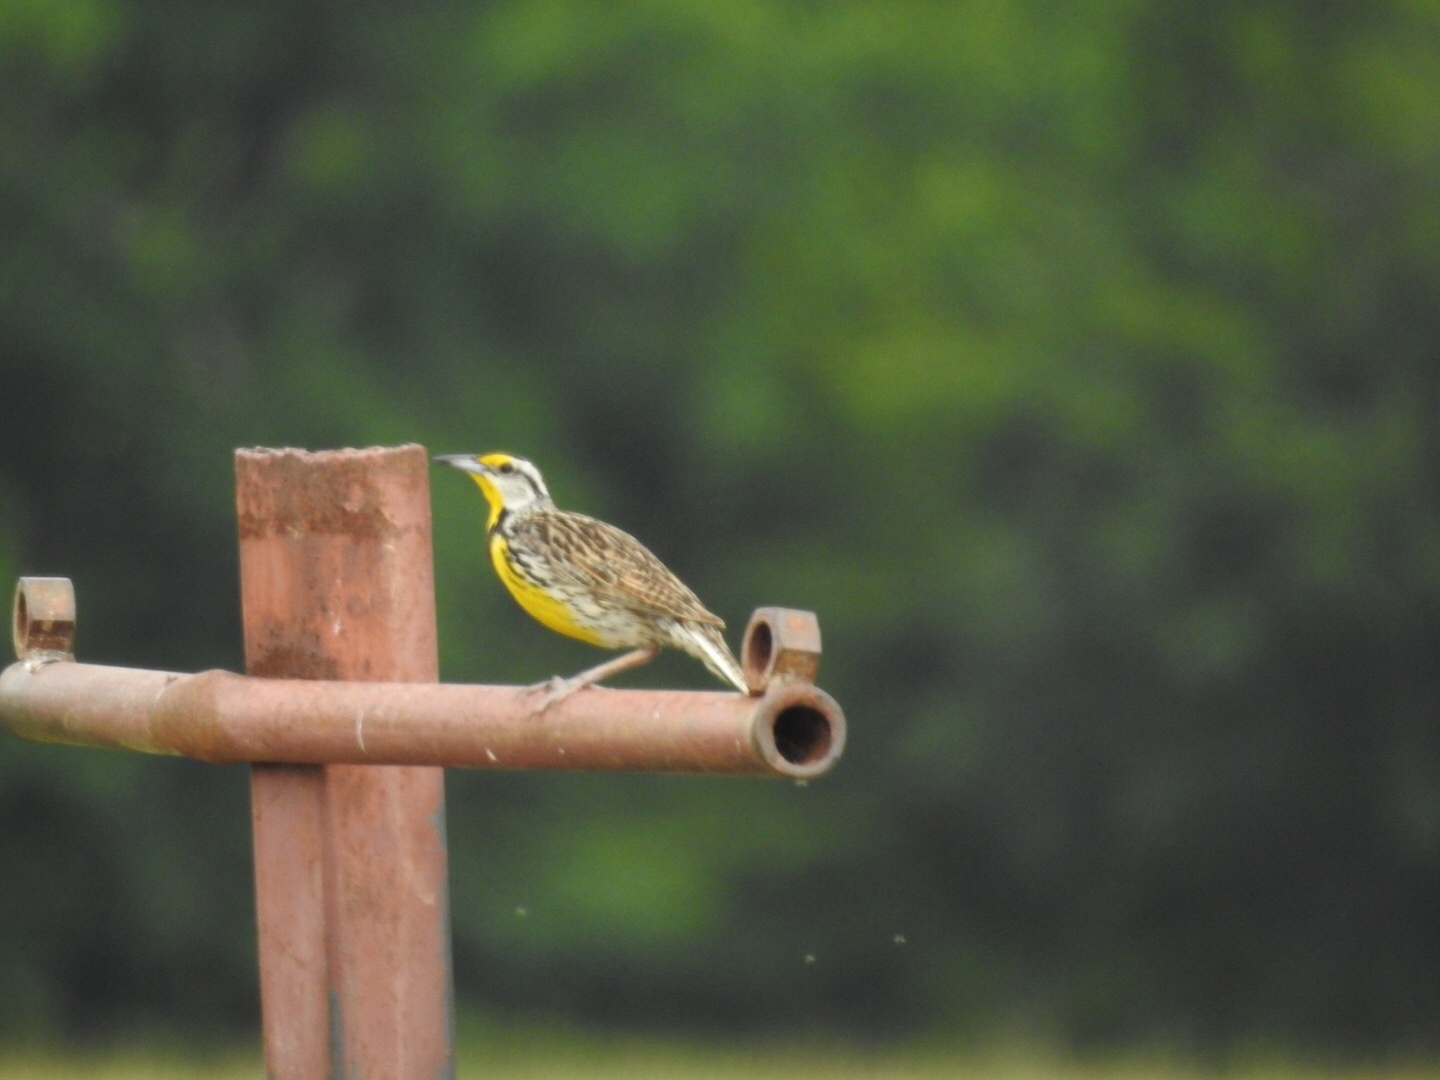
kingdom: Animalia
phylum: Chordata
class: Aves
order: Passeriformes
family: Icteridae
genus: Sturnella
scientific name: Sturnella magna
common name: Eastern meadowlark
